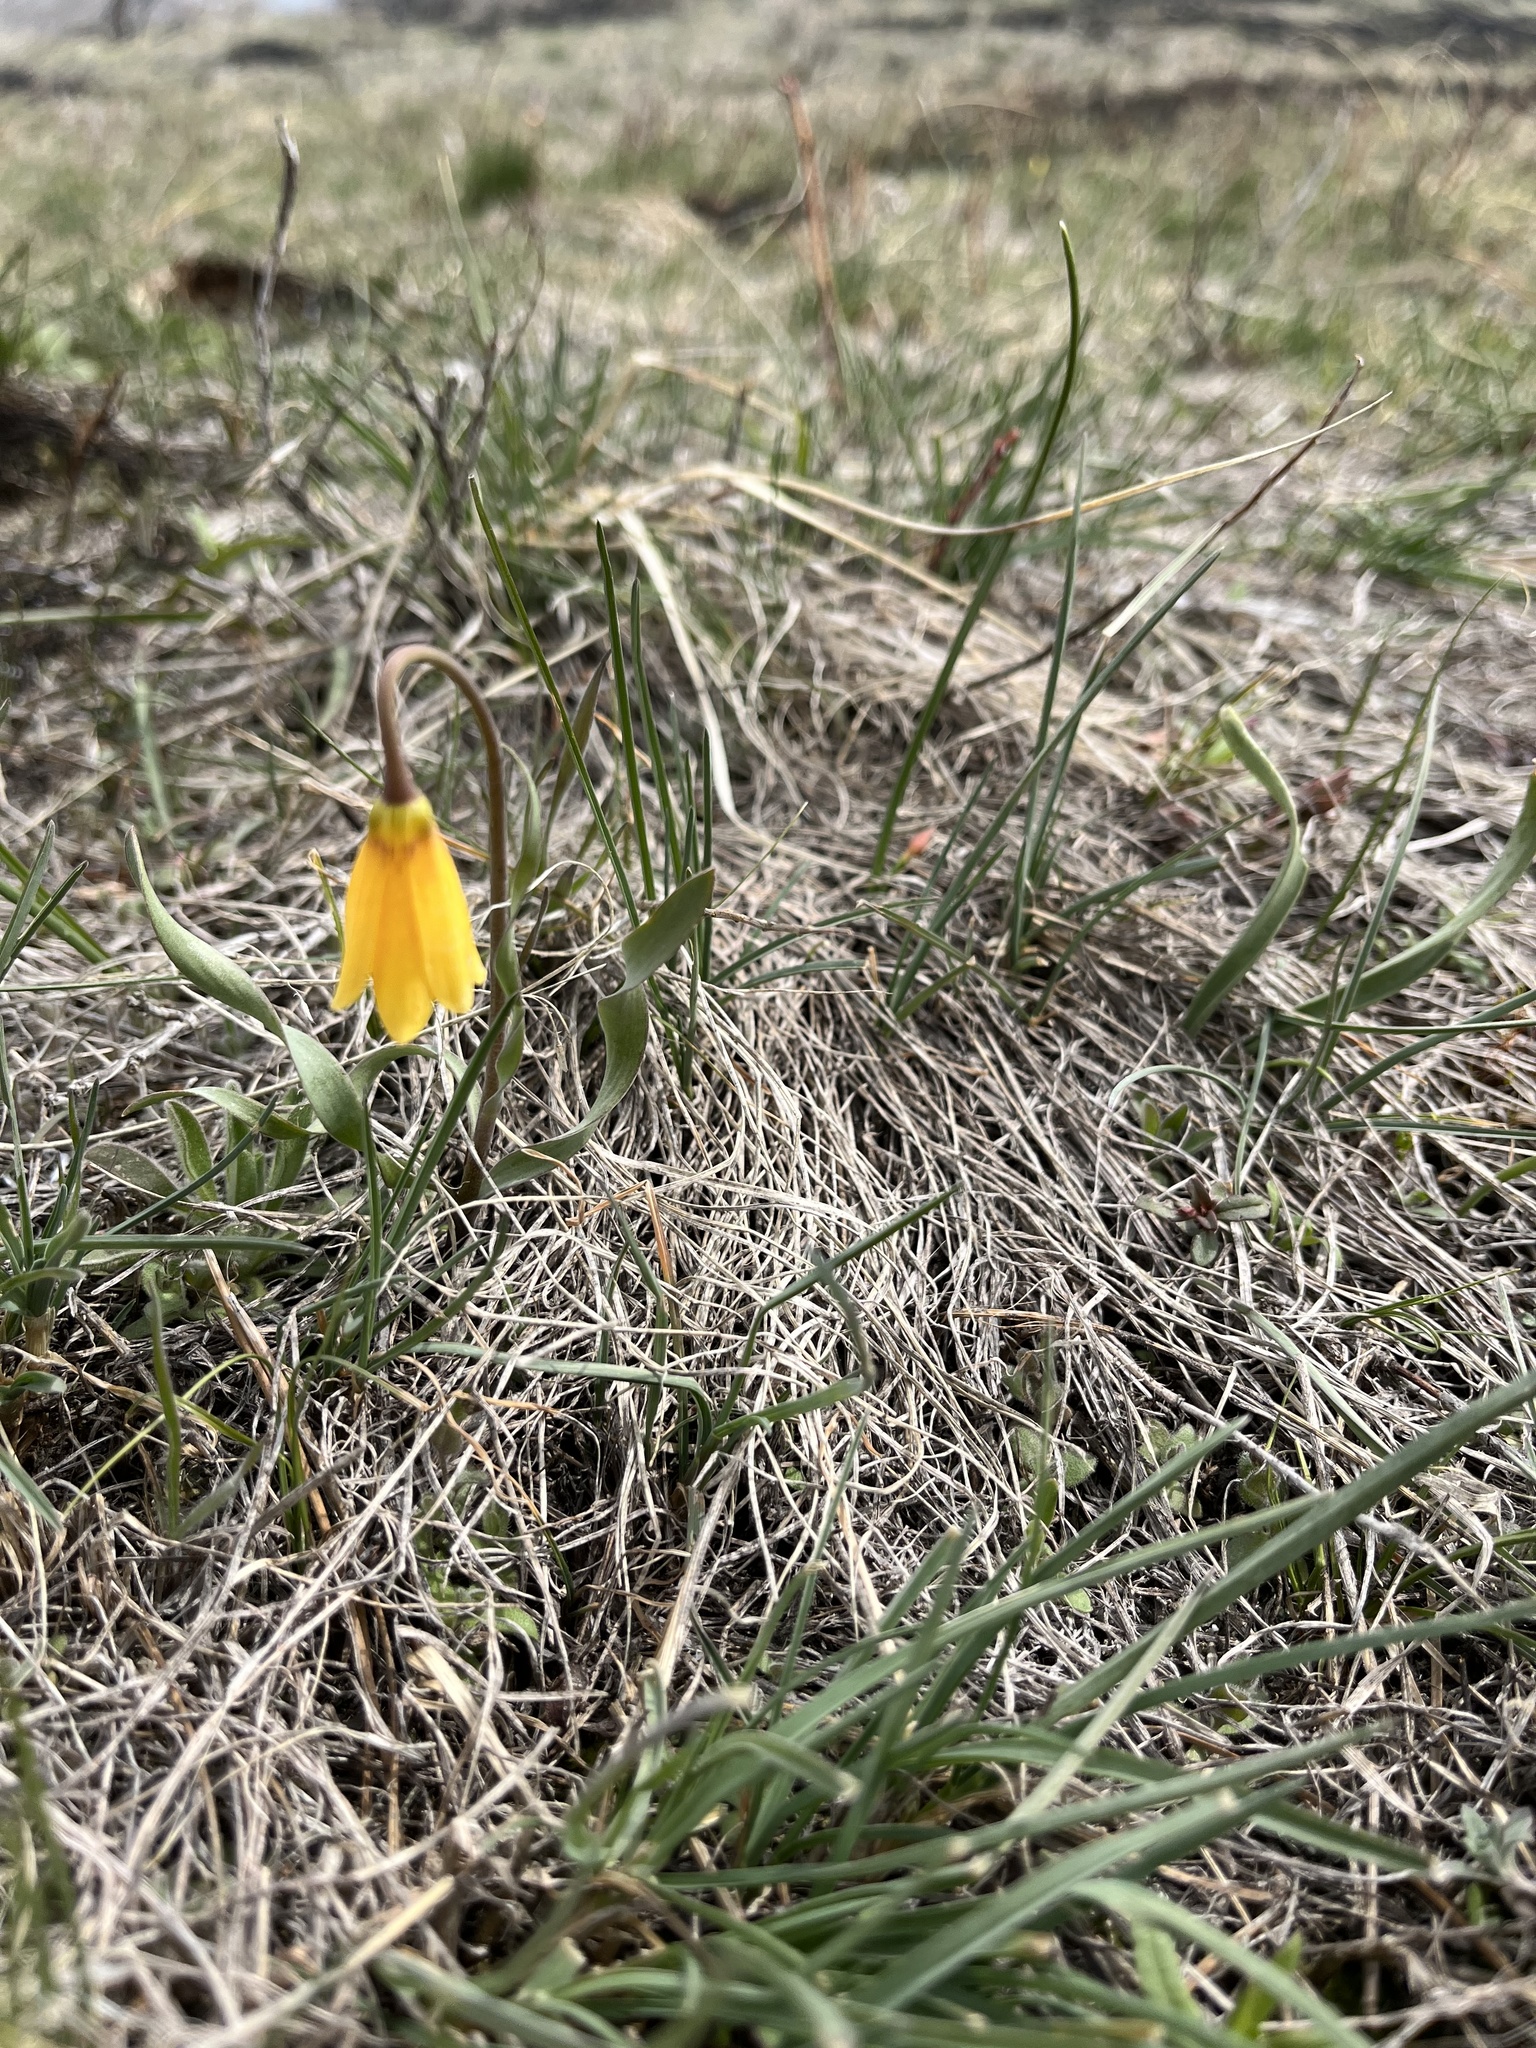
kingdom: Plantae
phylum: Tracheophyta
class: Liliopsida
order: Liliales
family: Liliaceae
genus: Fritillaria
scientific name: Fritillaria pudica
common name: Yellow fritillary
